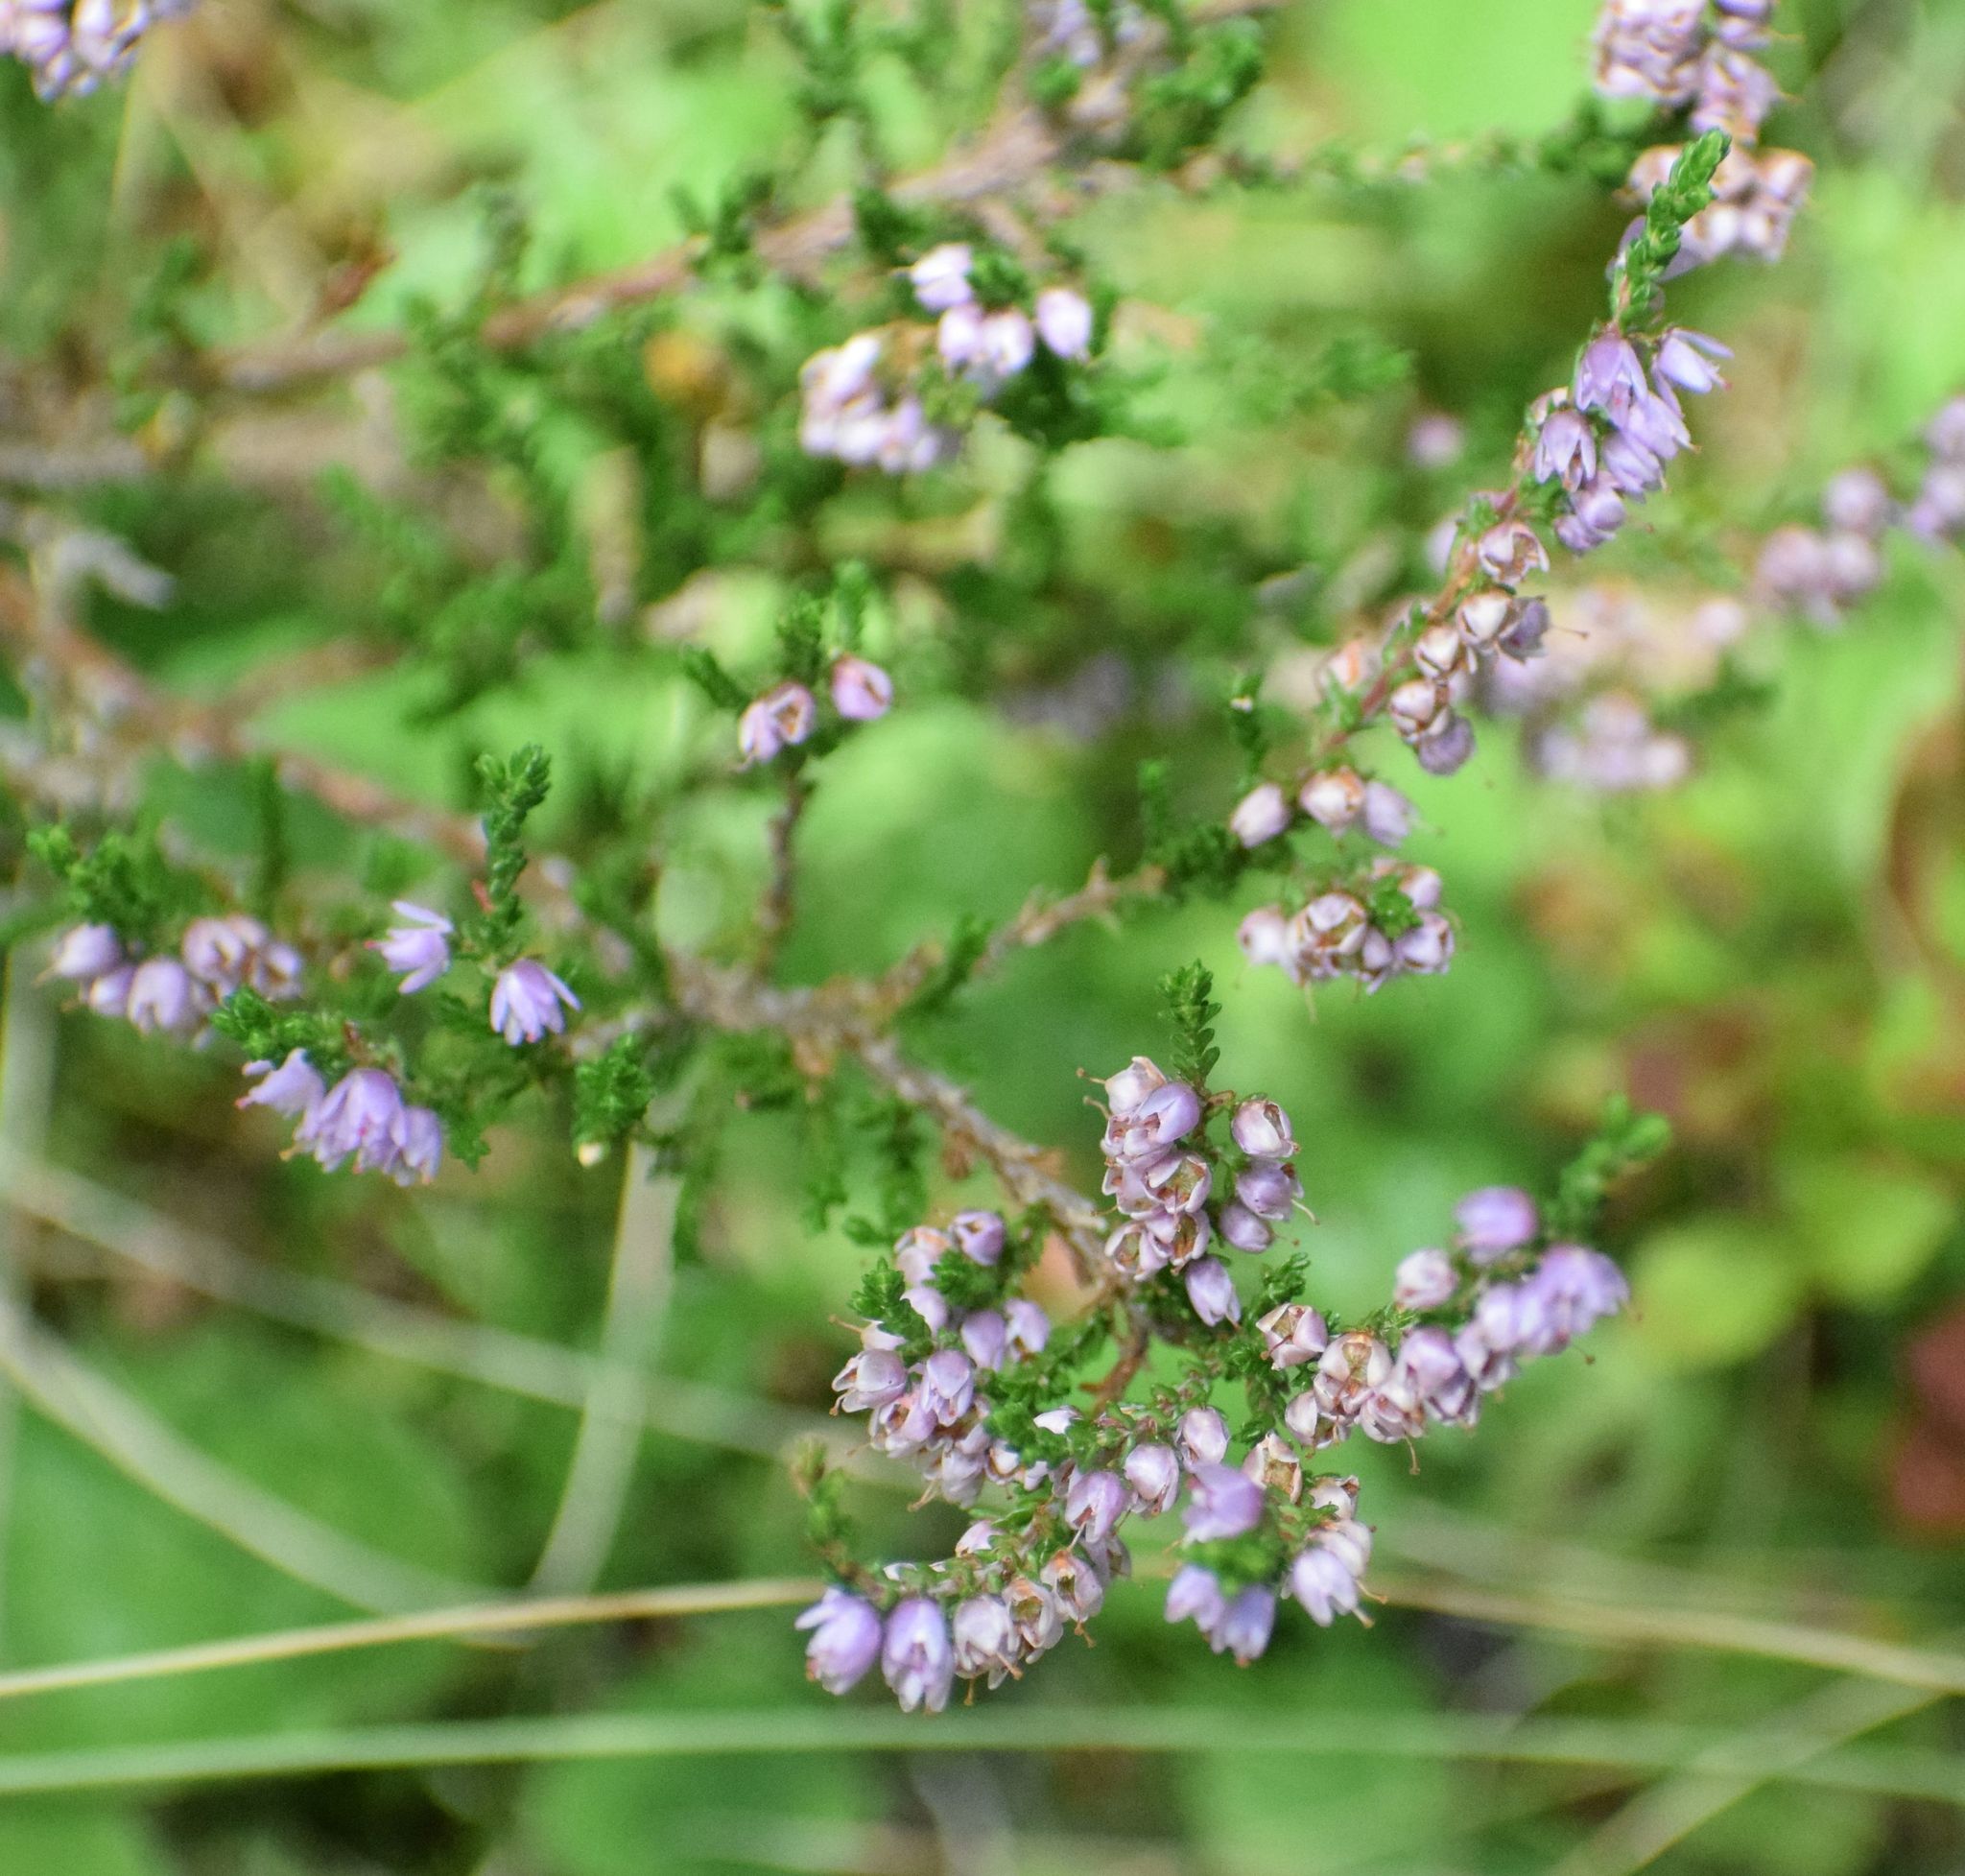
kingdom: Plantae
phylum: Tracheophyta
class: Magnoliopsida
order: Ericales
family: Ericaceae
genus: Calluna
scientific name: Calluna vulgaris
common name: Heather
